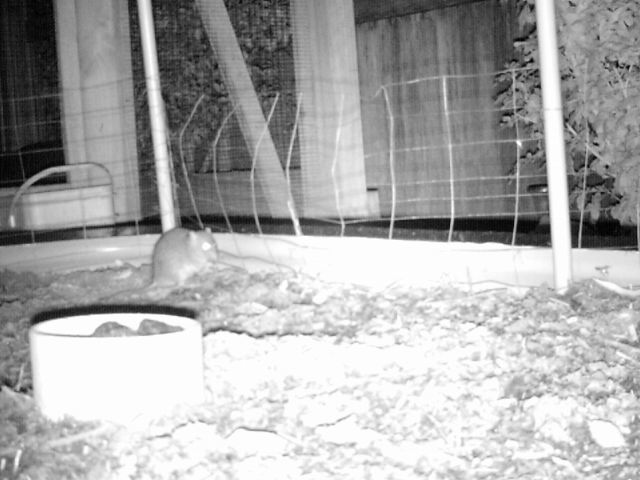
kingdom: Animalia
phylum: Chordata
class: Mammalia
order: Rodentia
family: Muridae
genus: Rattus
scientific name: Rattus rattus
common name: Black rat
